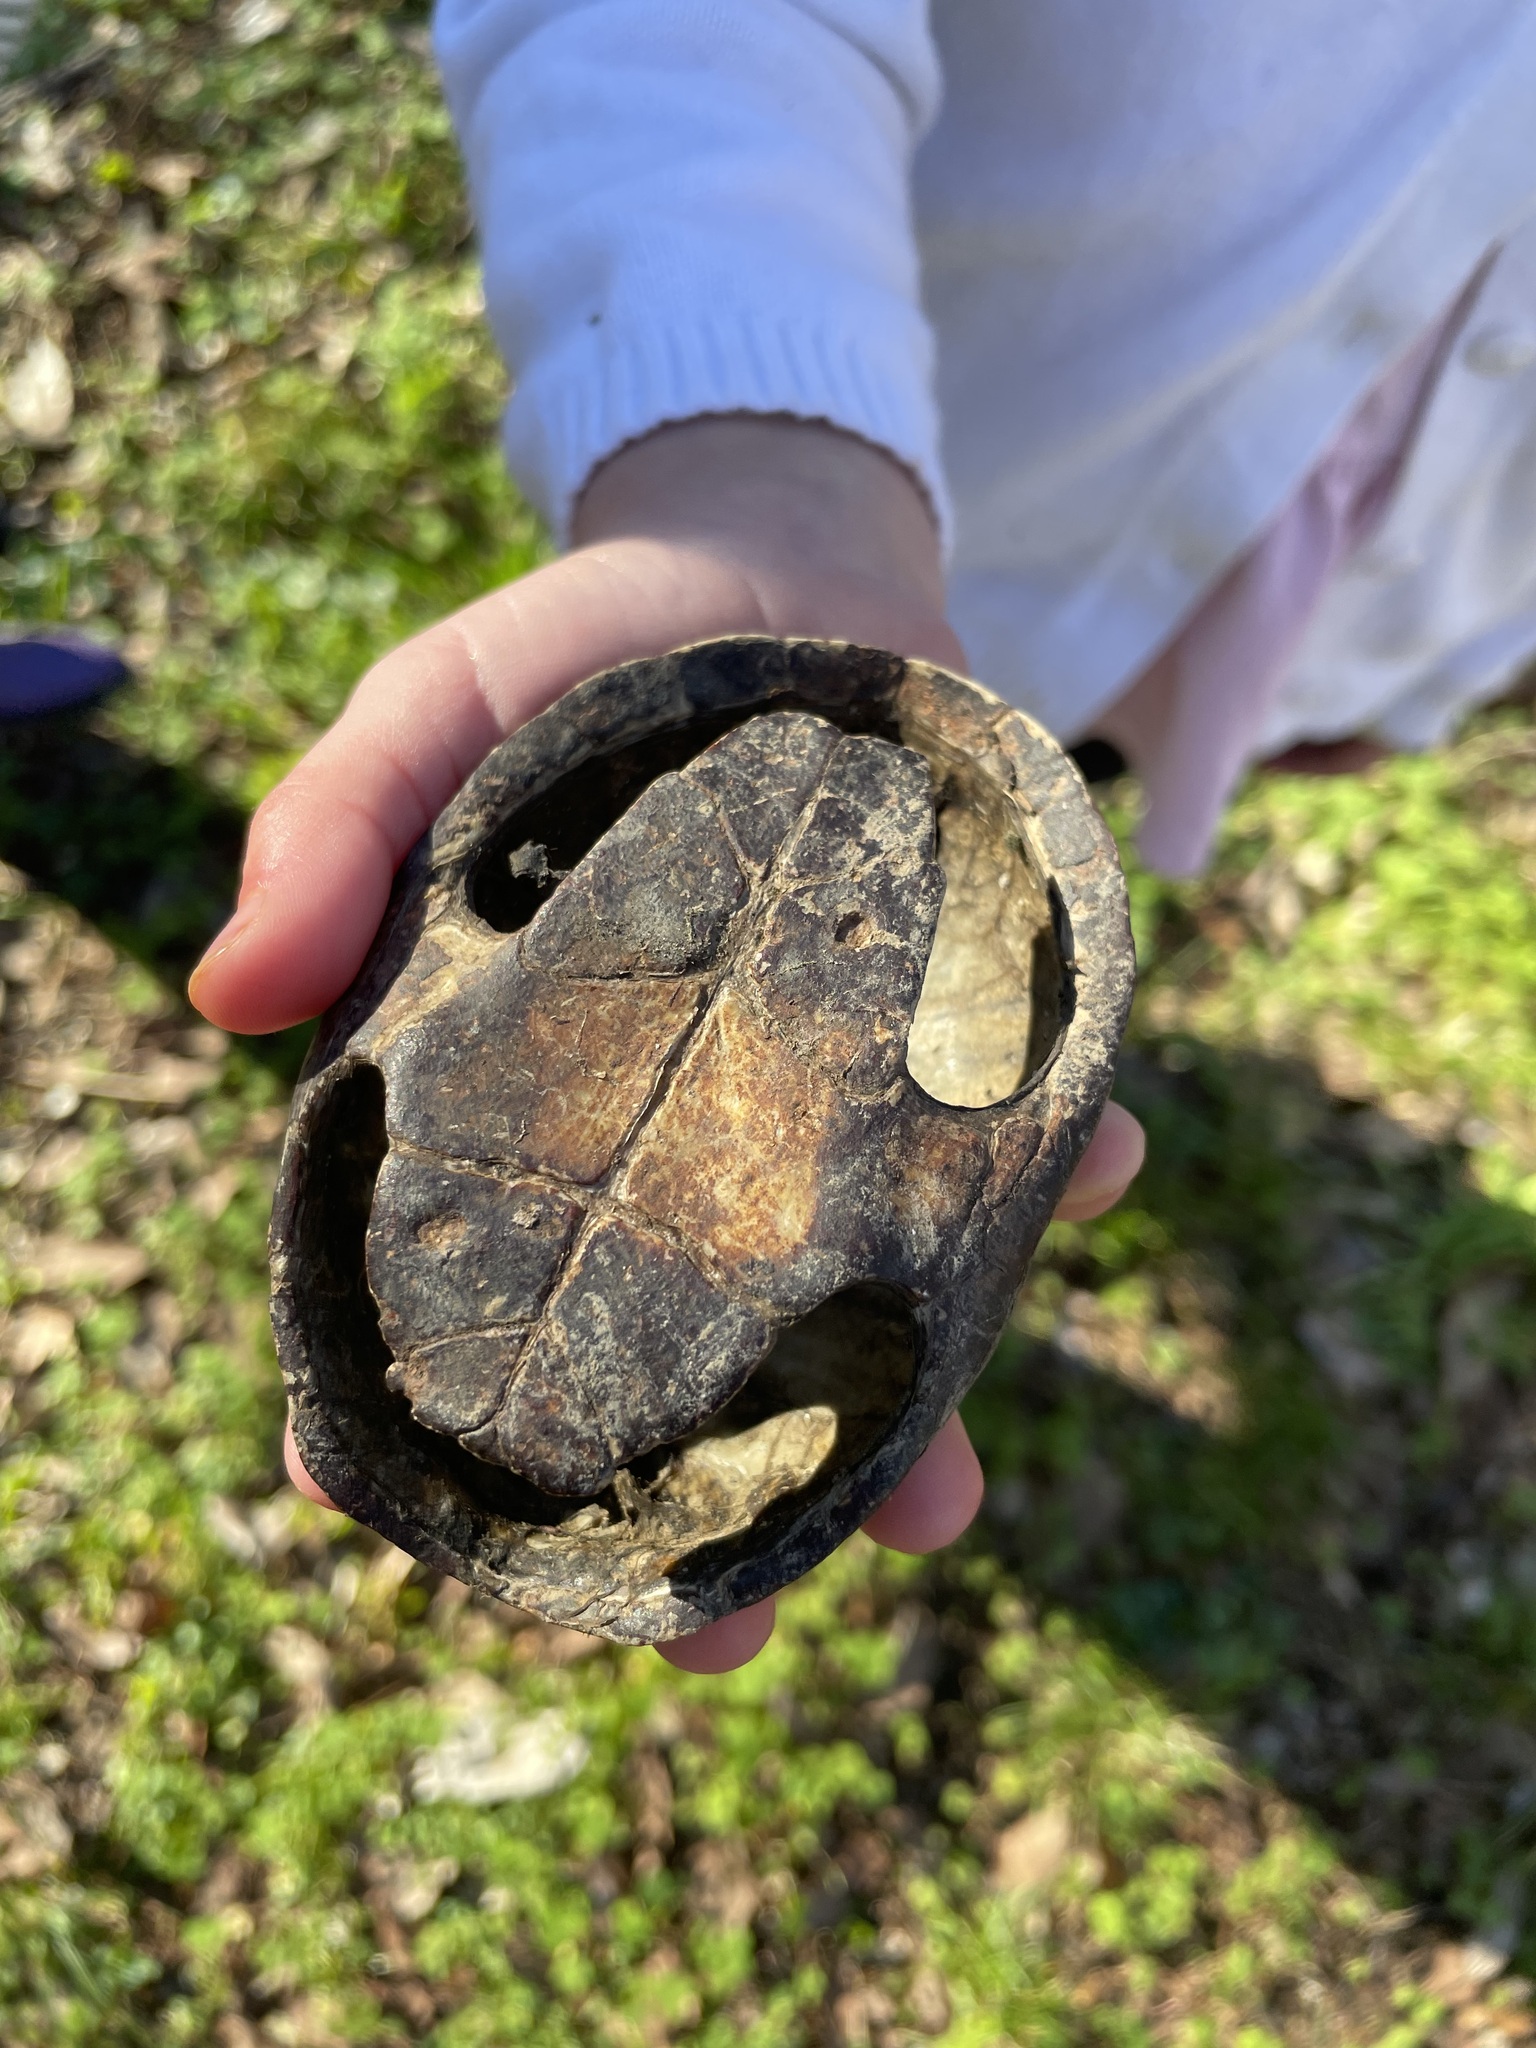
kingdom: Animalia
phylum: Chordata
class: Testudines
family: Kinosternidae
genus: Sternotherus
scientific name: Sternotherus odoratus
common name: Common musk turtle
